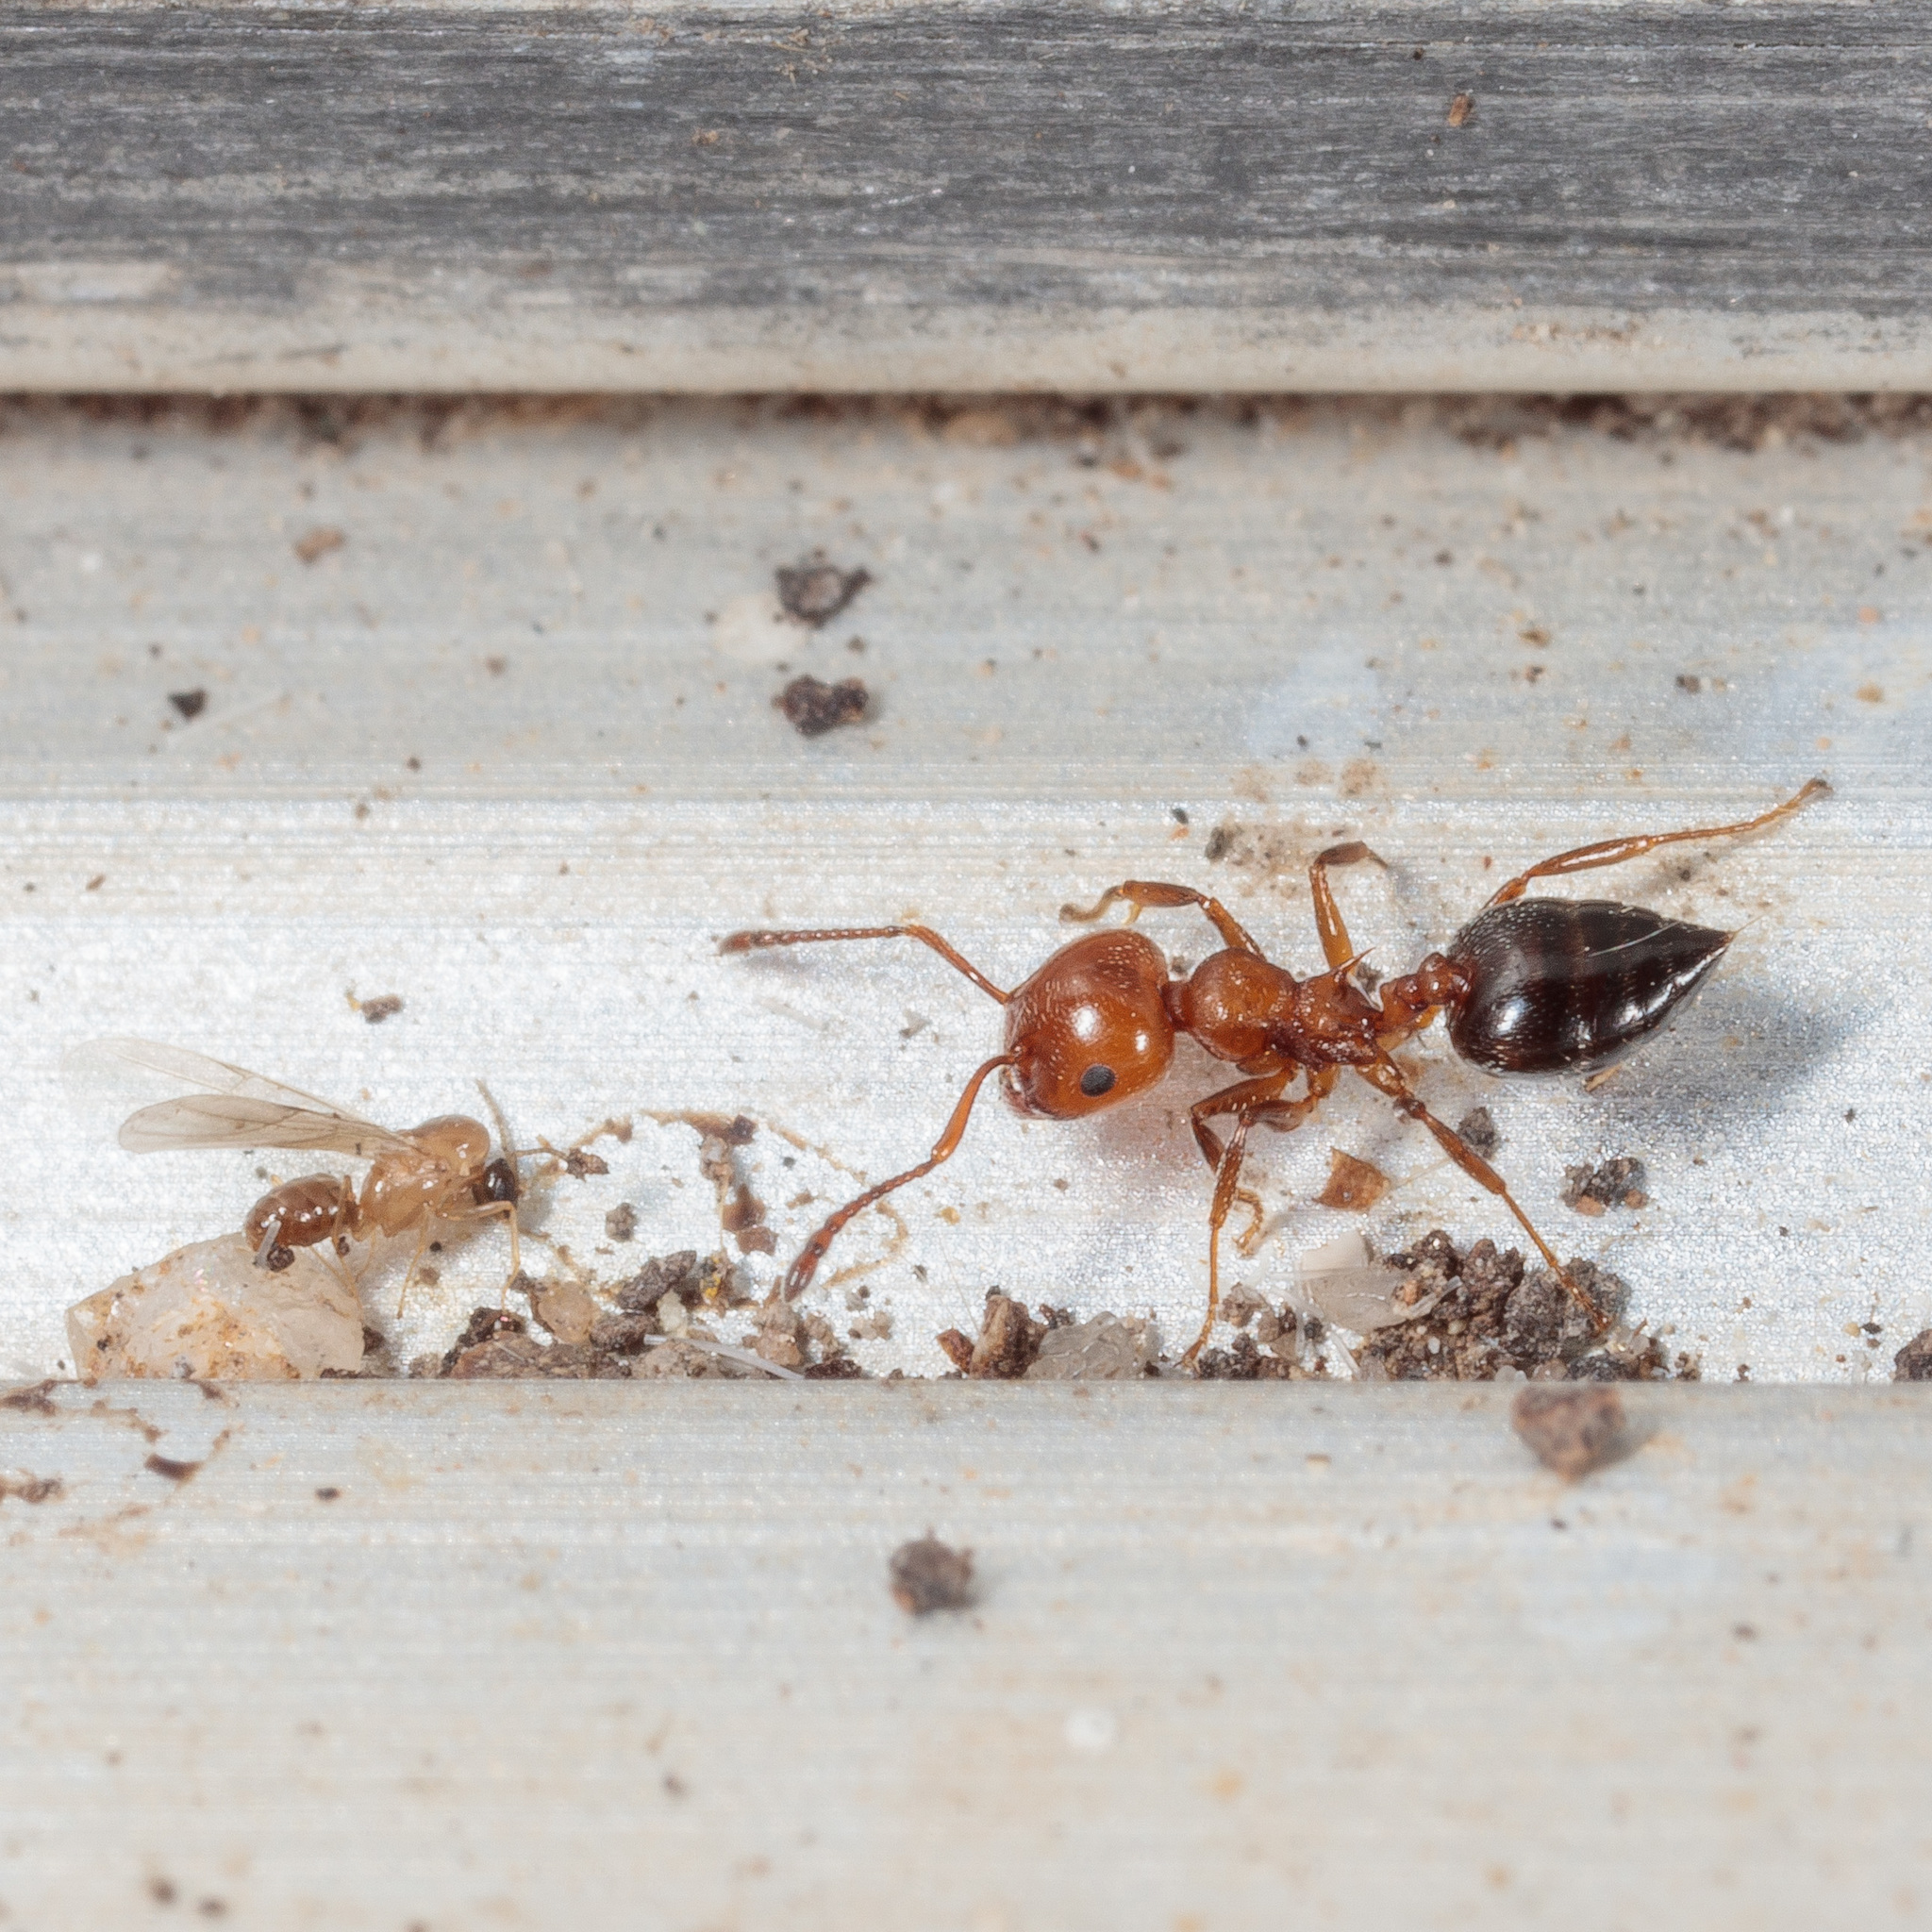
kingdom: Animalia
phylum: Arthropoda
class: Insecta
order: Hymenoptera
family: Formicidae
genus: Crematogaster
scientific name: Crematogaster laeviuscula
